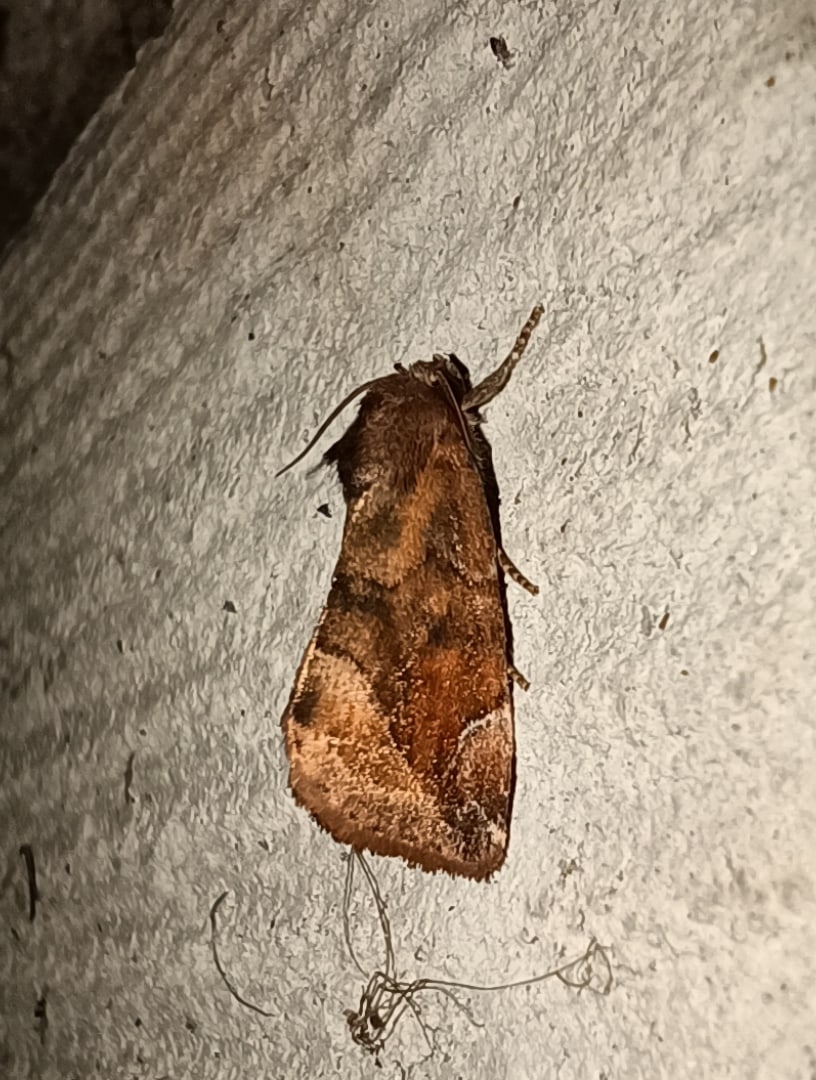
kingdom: Animalia
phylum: Arthropoda
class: Insecta
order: Lepidoptera
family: Noctuidae
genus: Cosmia
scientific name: Cosmia pyralina
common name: Lunar-spotted pinion
